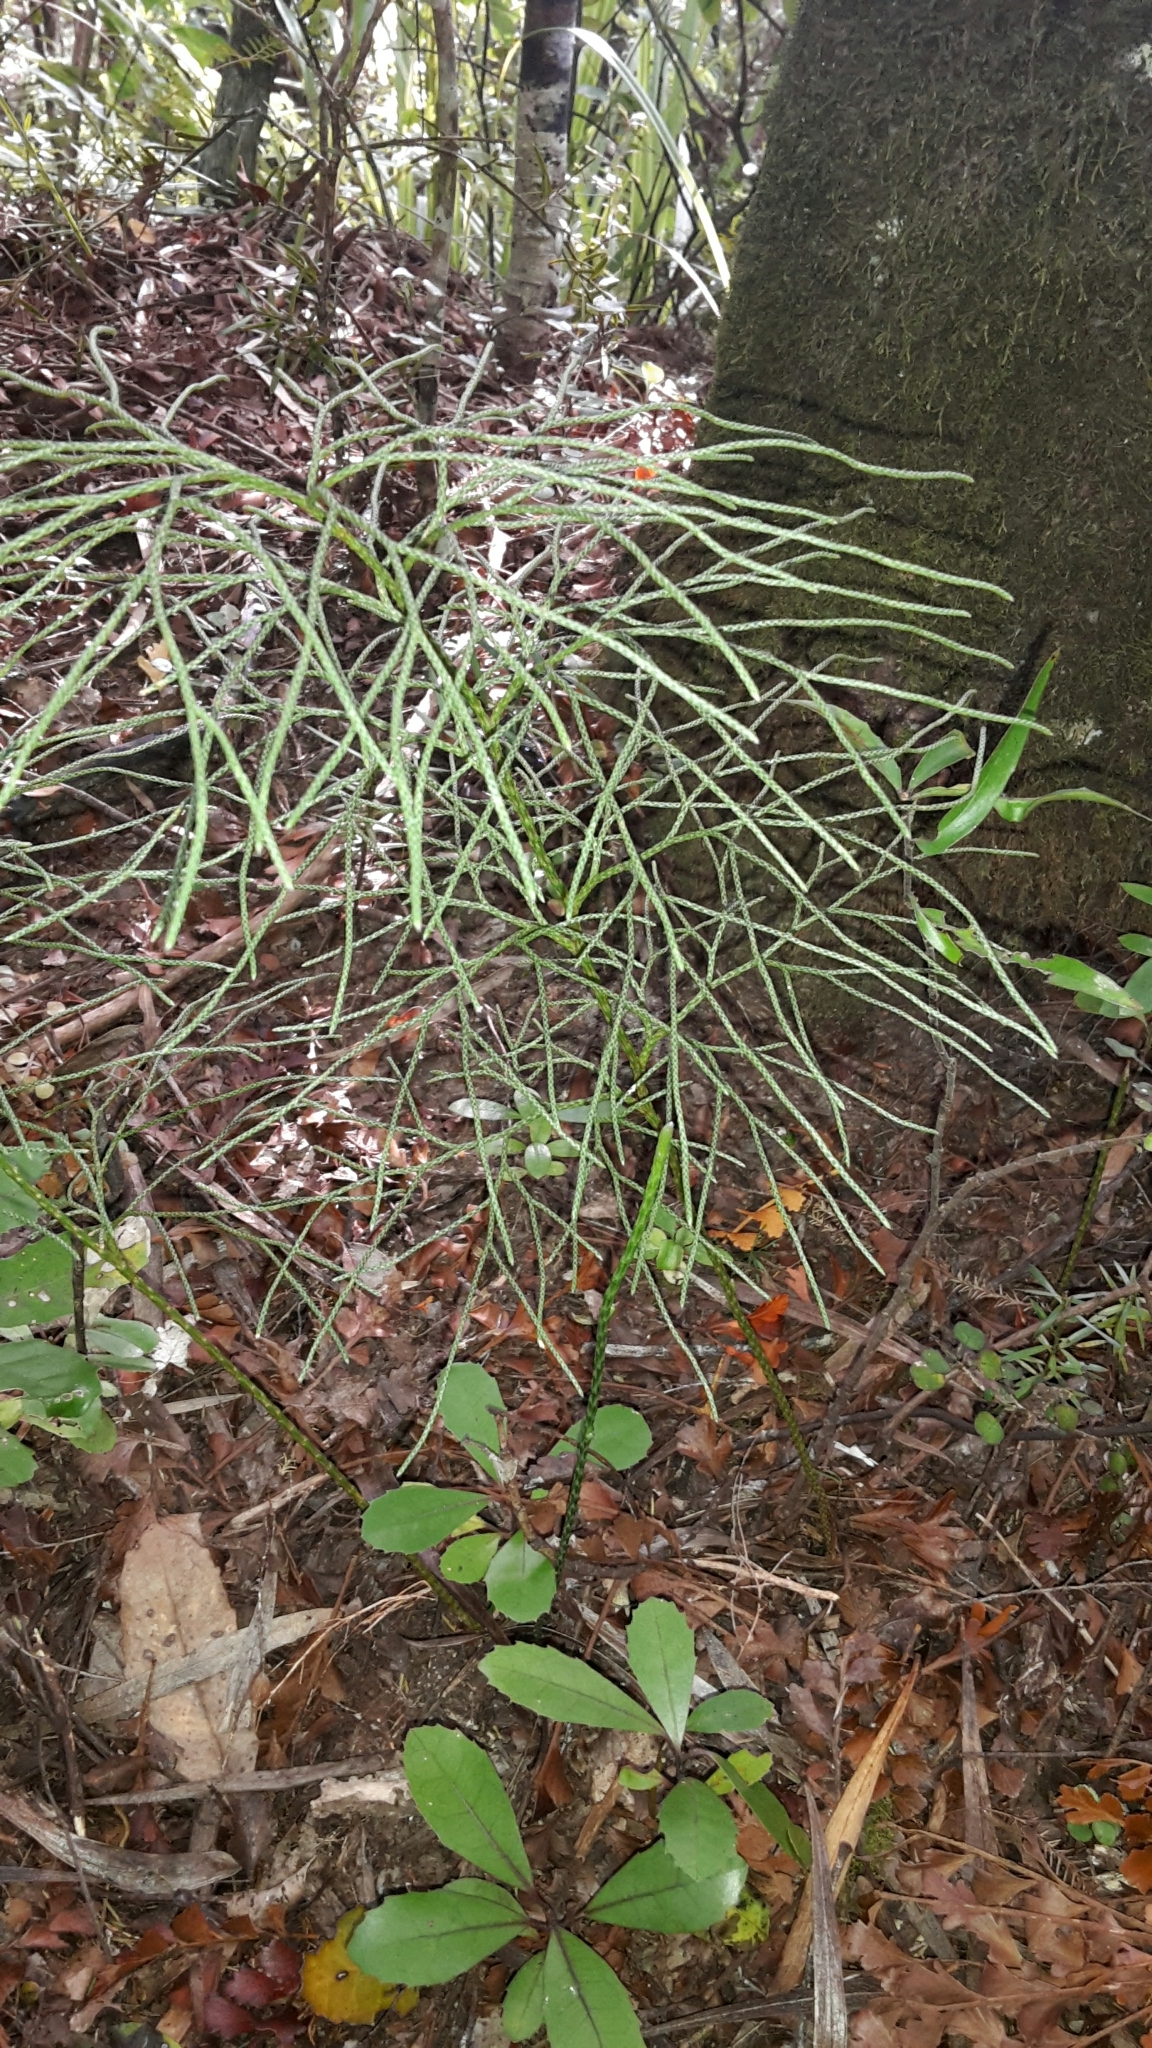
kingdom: Plantae
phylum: Tracheophyta
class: Lycopodiopsida
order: Lycopodiales
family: Lycopodiaceae
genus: Pseudolycopodium
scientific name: Pseudolycopodium densum
